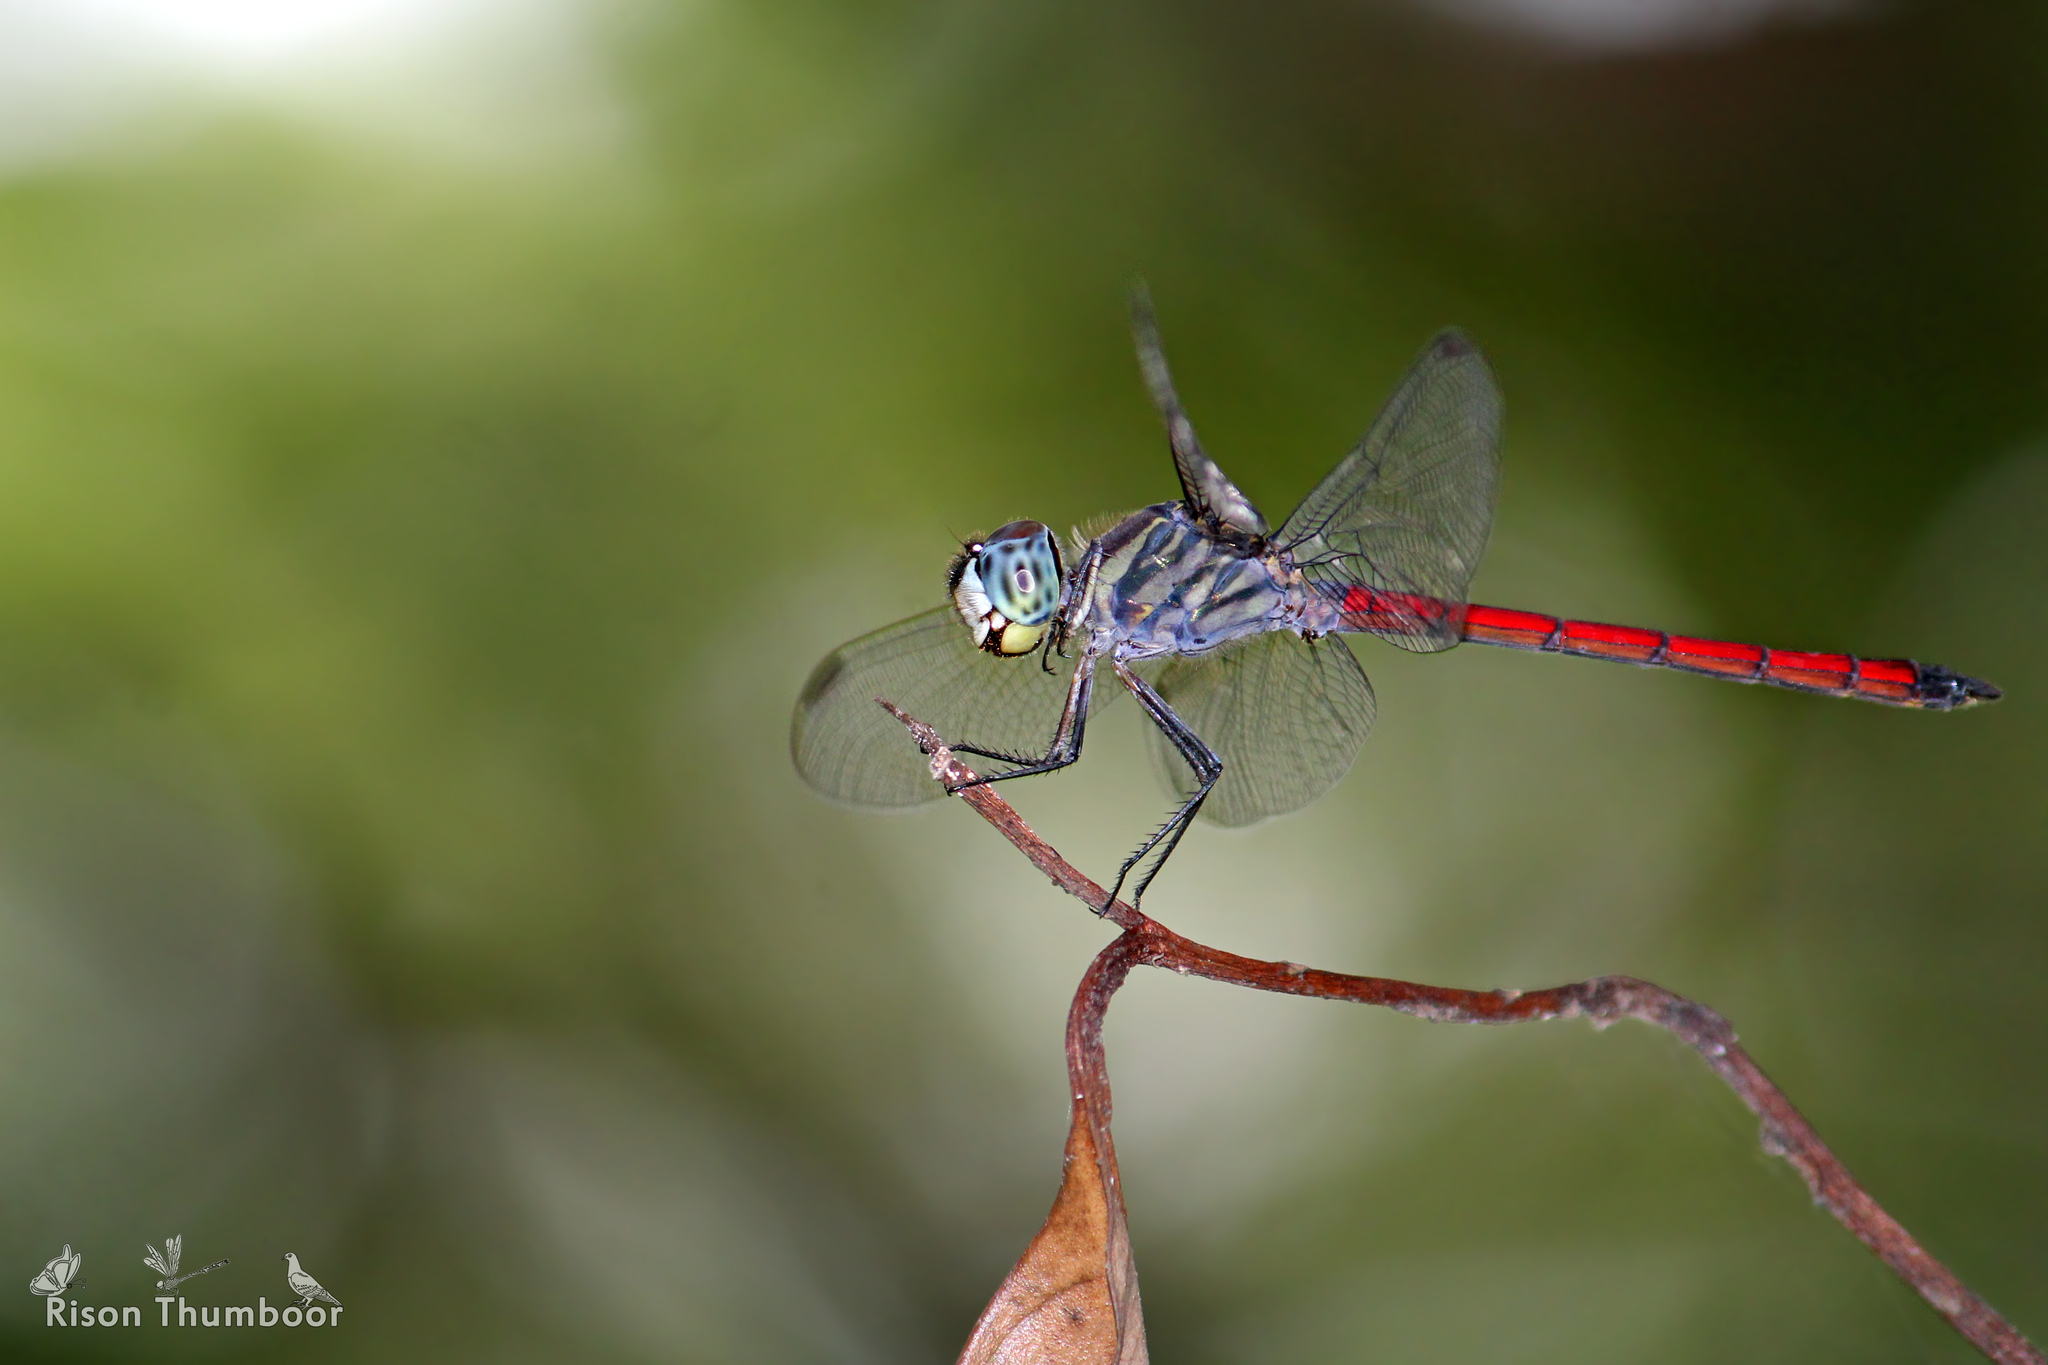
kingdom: Animalia
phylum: Arthropoda
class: Insecta
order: Odonata
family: Libellulidae
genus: Lathrecista
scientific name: Lathrecista asiatica
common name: Scarlet grenadier
